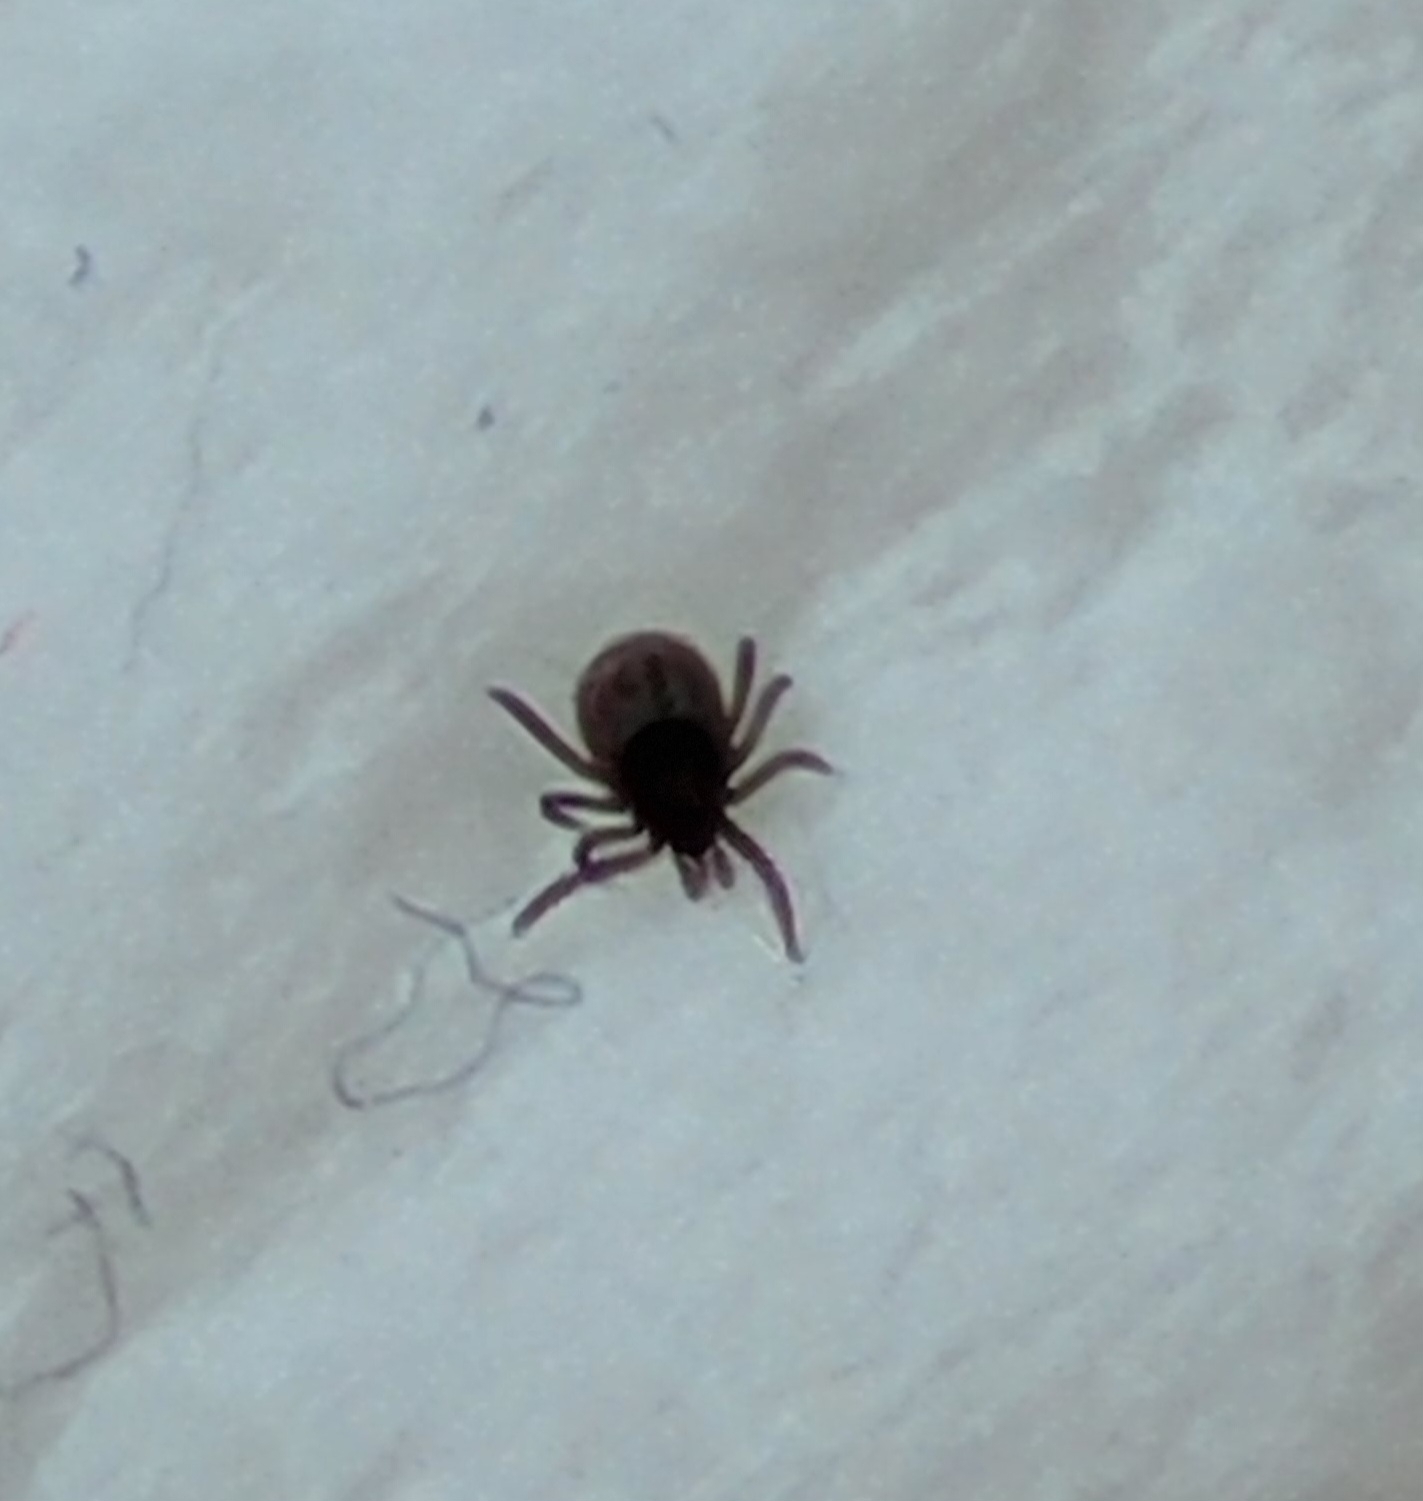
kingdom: Animalia
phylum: Arthropoda
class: Arachnida
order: Ixodida
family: Ixodidae
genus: Ixodes
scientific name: Ixodes ricinus
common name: Castor bean tick
